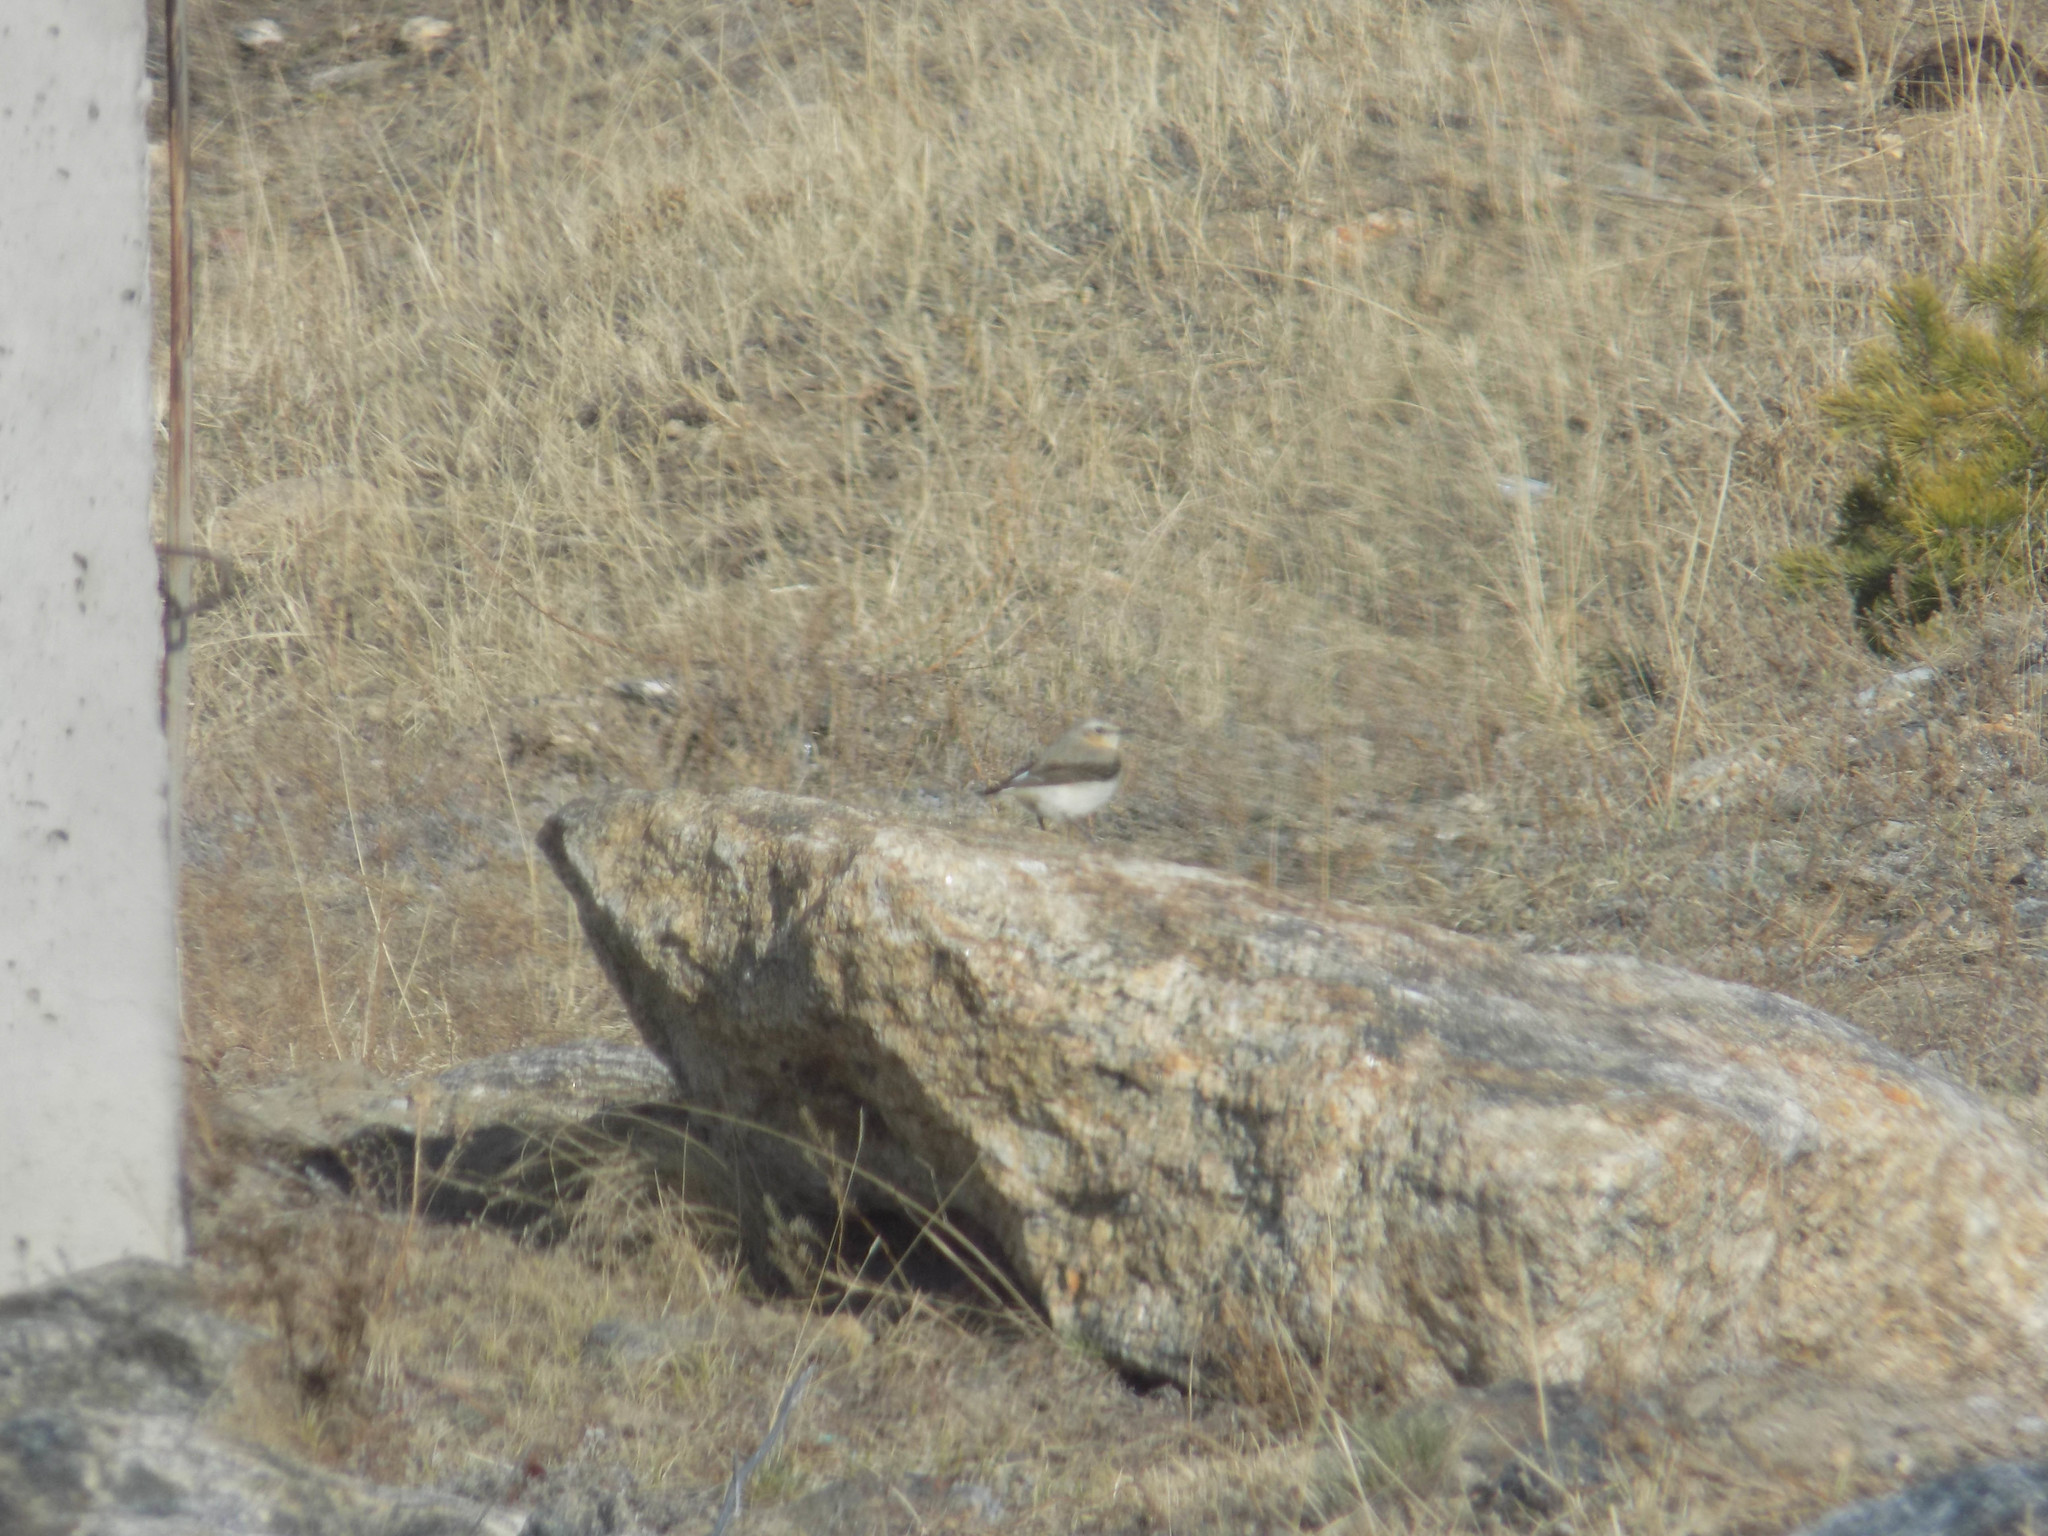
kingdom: Animalia
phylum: Chordata
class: Aves
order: Passeriformes
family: Muscicapidae
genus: Oenanthe
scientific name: Oenanthe oenanthe
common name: Northern wheatear
